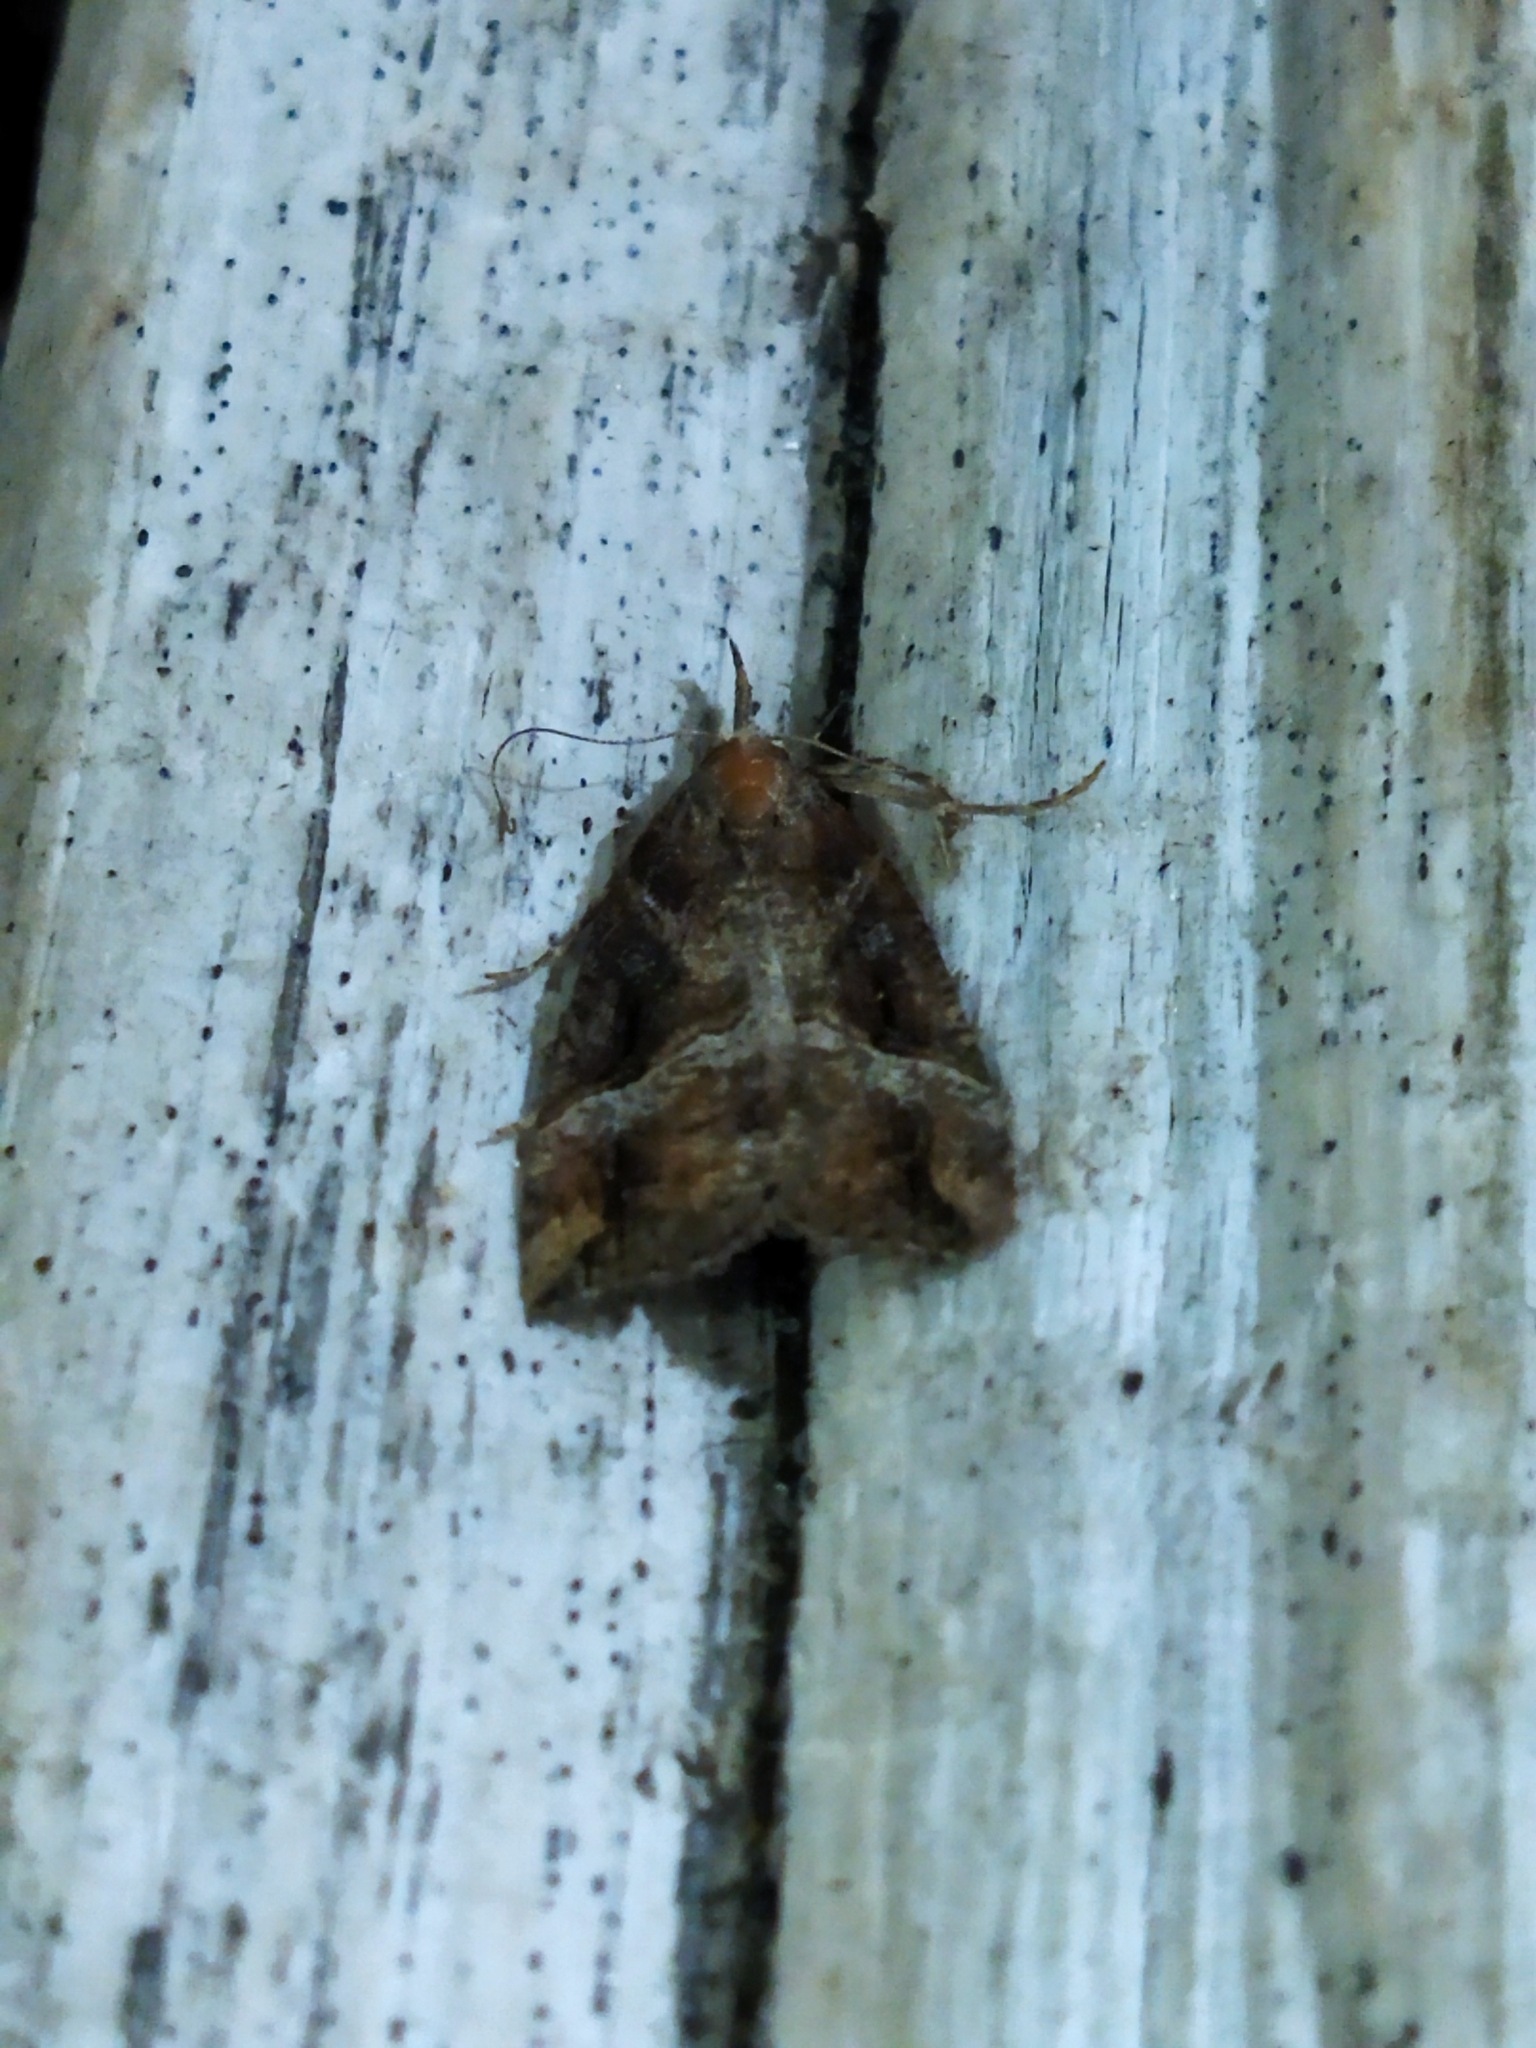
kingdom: Animalia
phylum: Arthropoda
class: Insecta
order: Lepidoptera
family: Erebidae
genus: Hypena
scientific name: Hypena rostralis
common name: Buttoned snout
